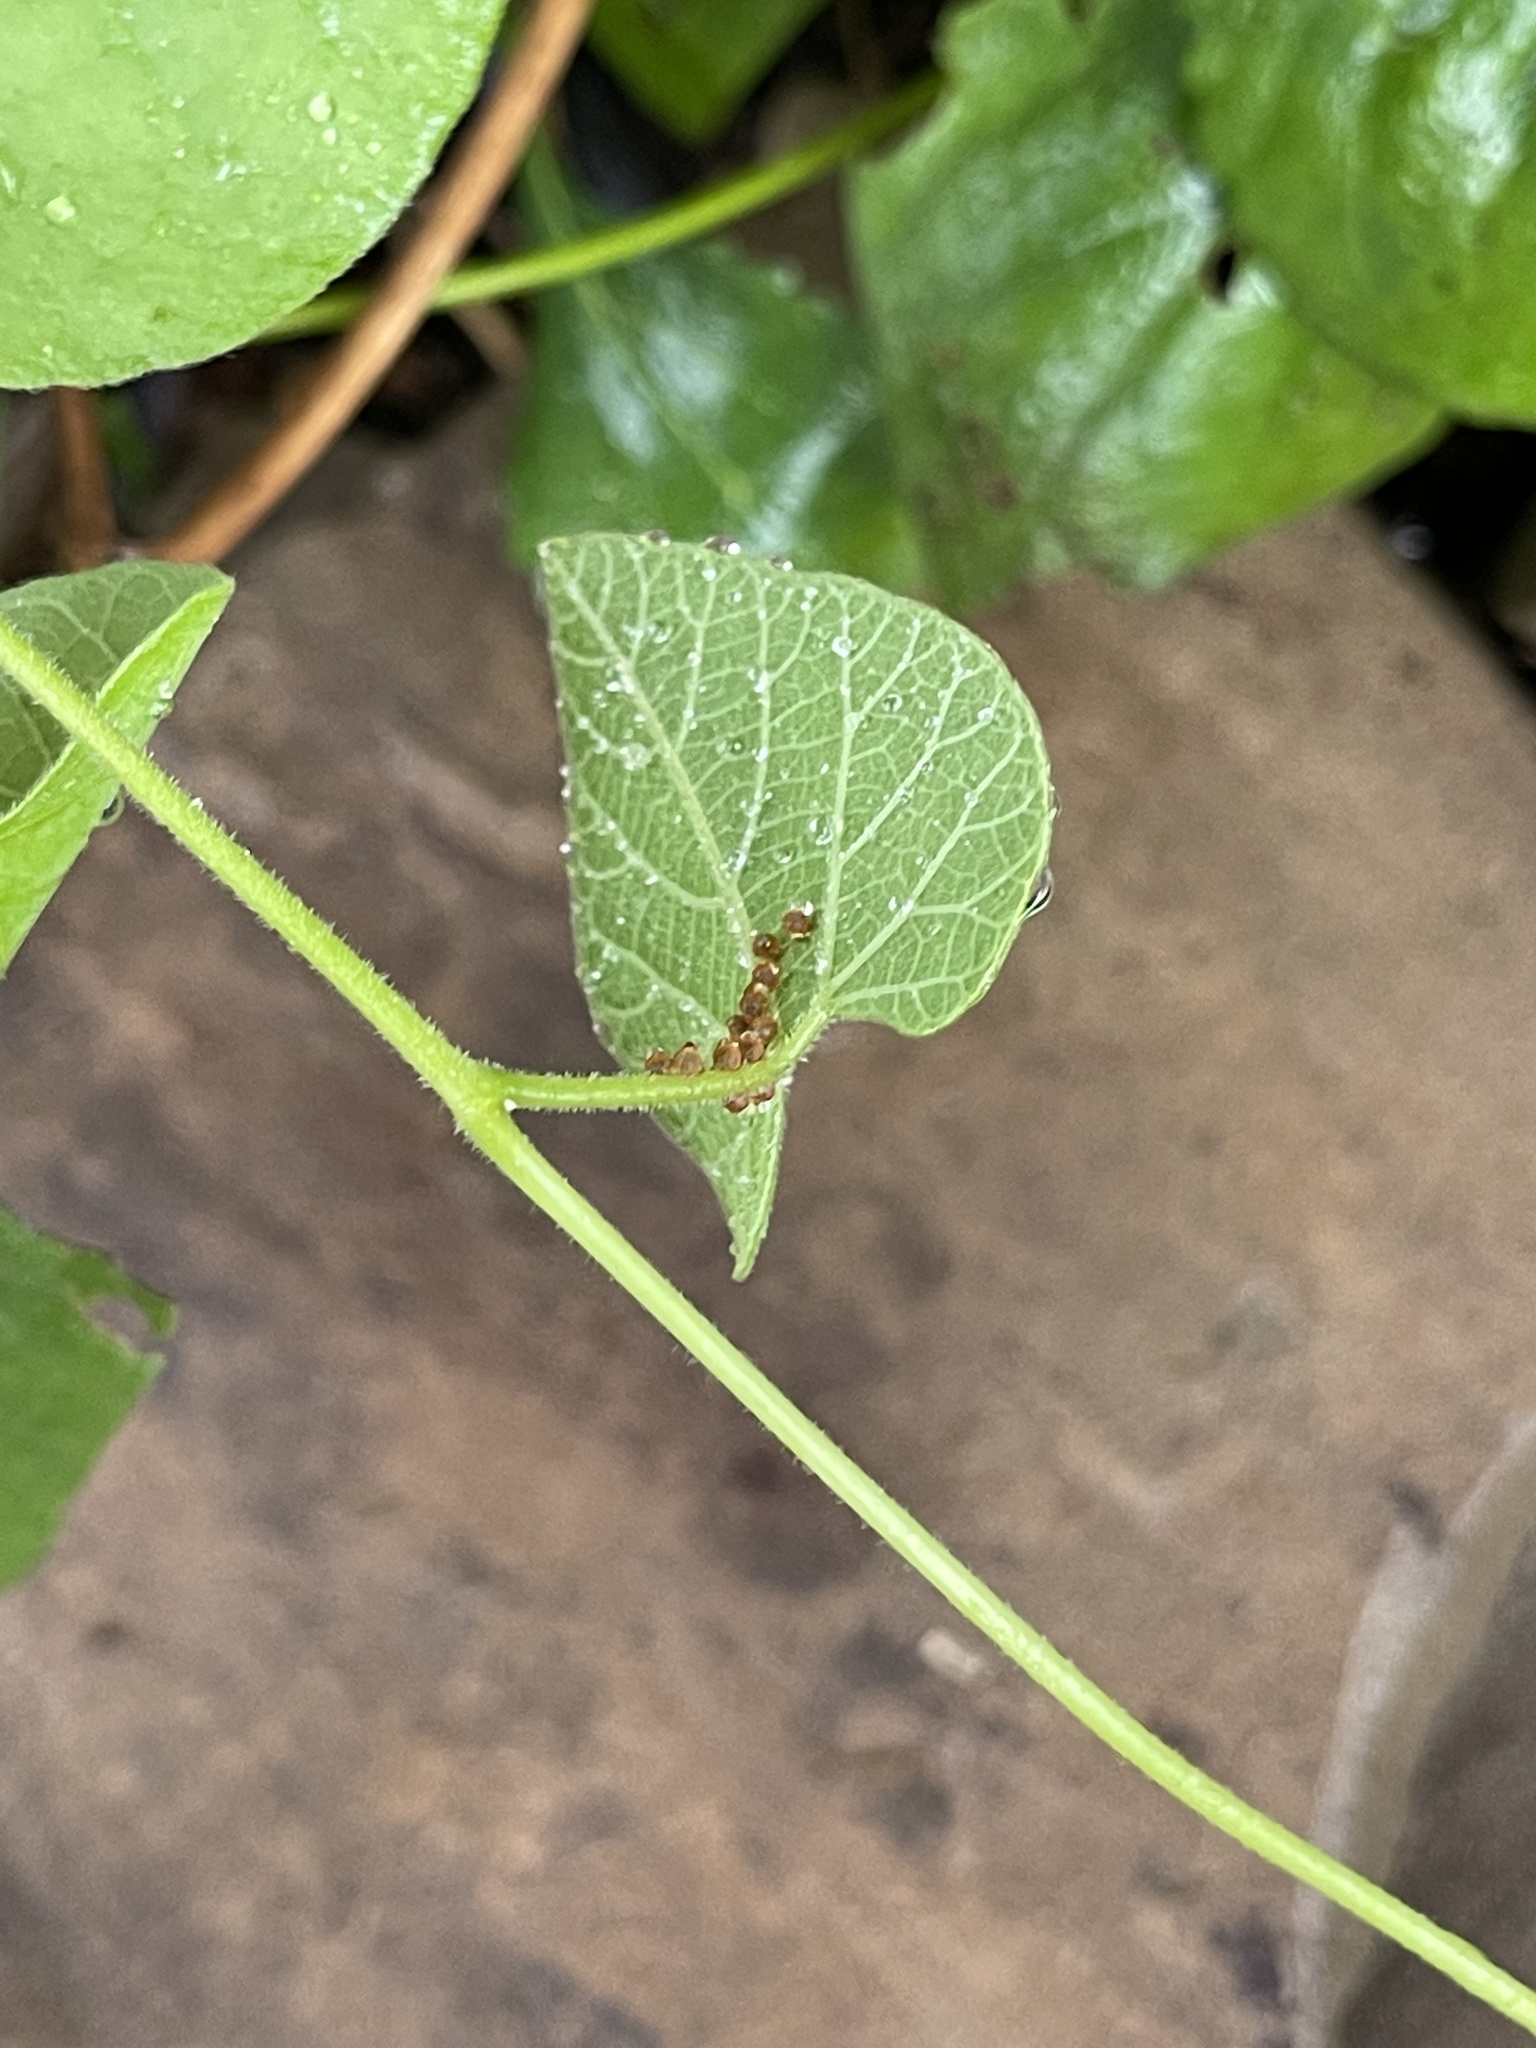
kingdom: Animalia
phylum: Arthropoda
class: Insecta
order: Lepidoptera
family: Papilionidae
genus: Battus
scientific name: Battus philenor
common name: Pipevine swallowtail
